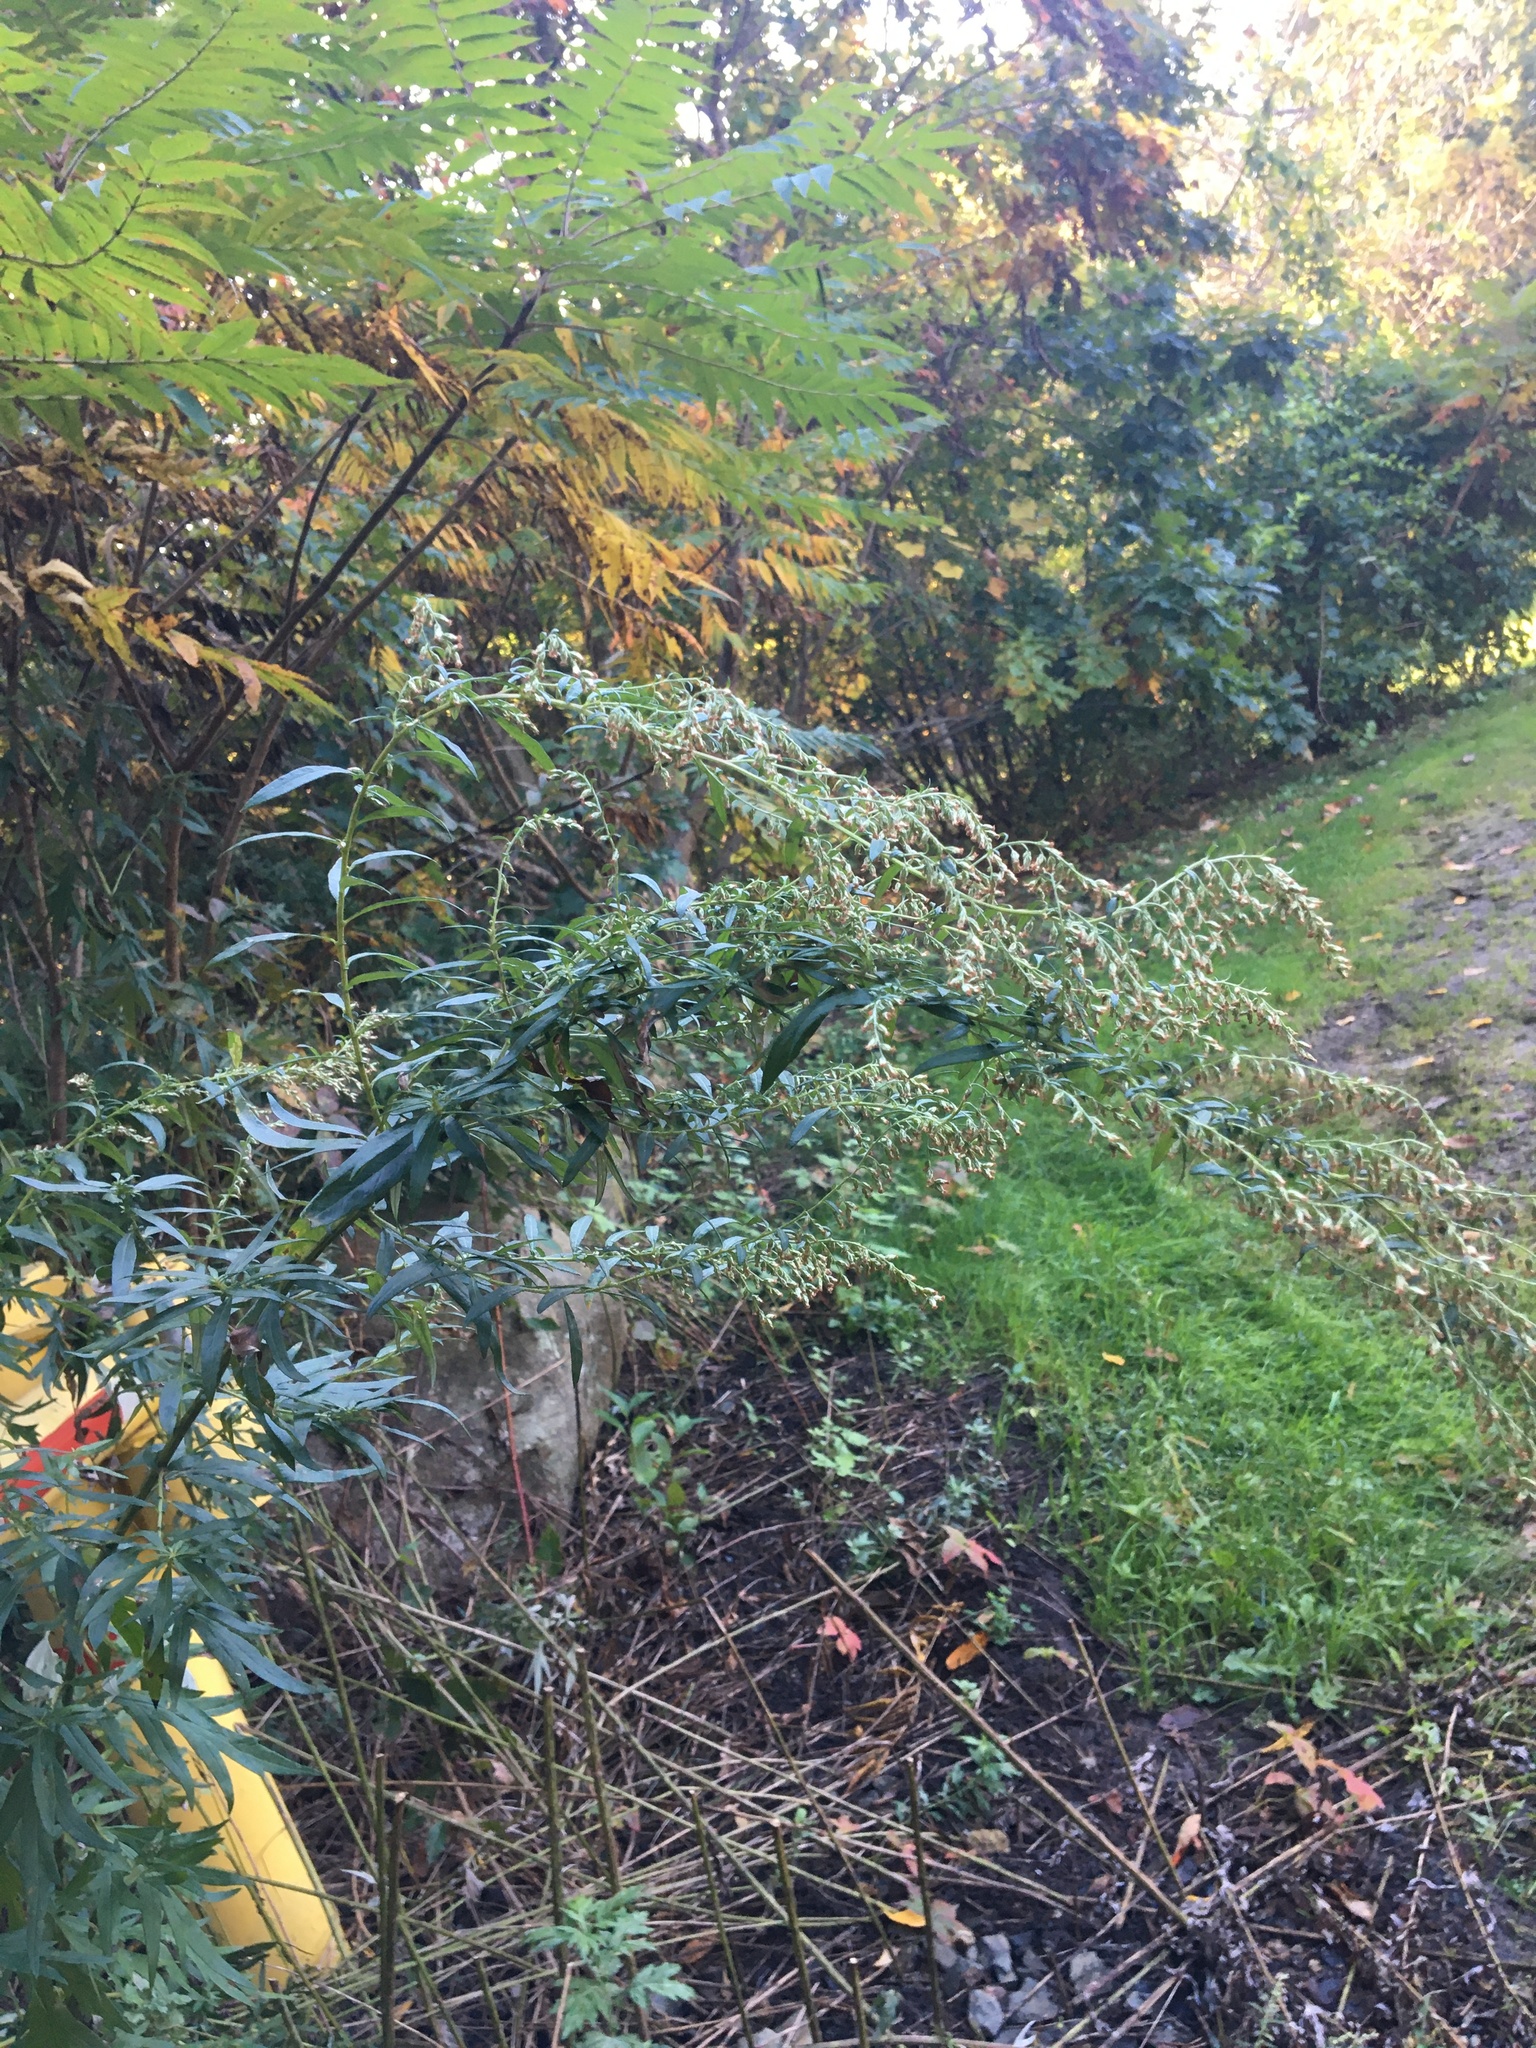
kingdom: Plantae
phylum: Tracheophyta
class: Magnoliopsida
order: Asterales
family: Asteraceae
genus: Artemisia
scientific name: Artemisia vulgaris
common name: Mugwort
